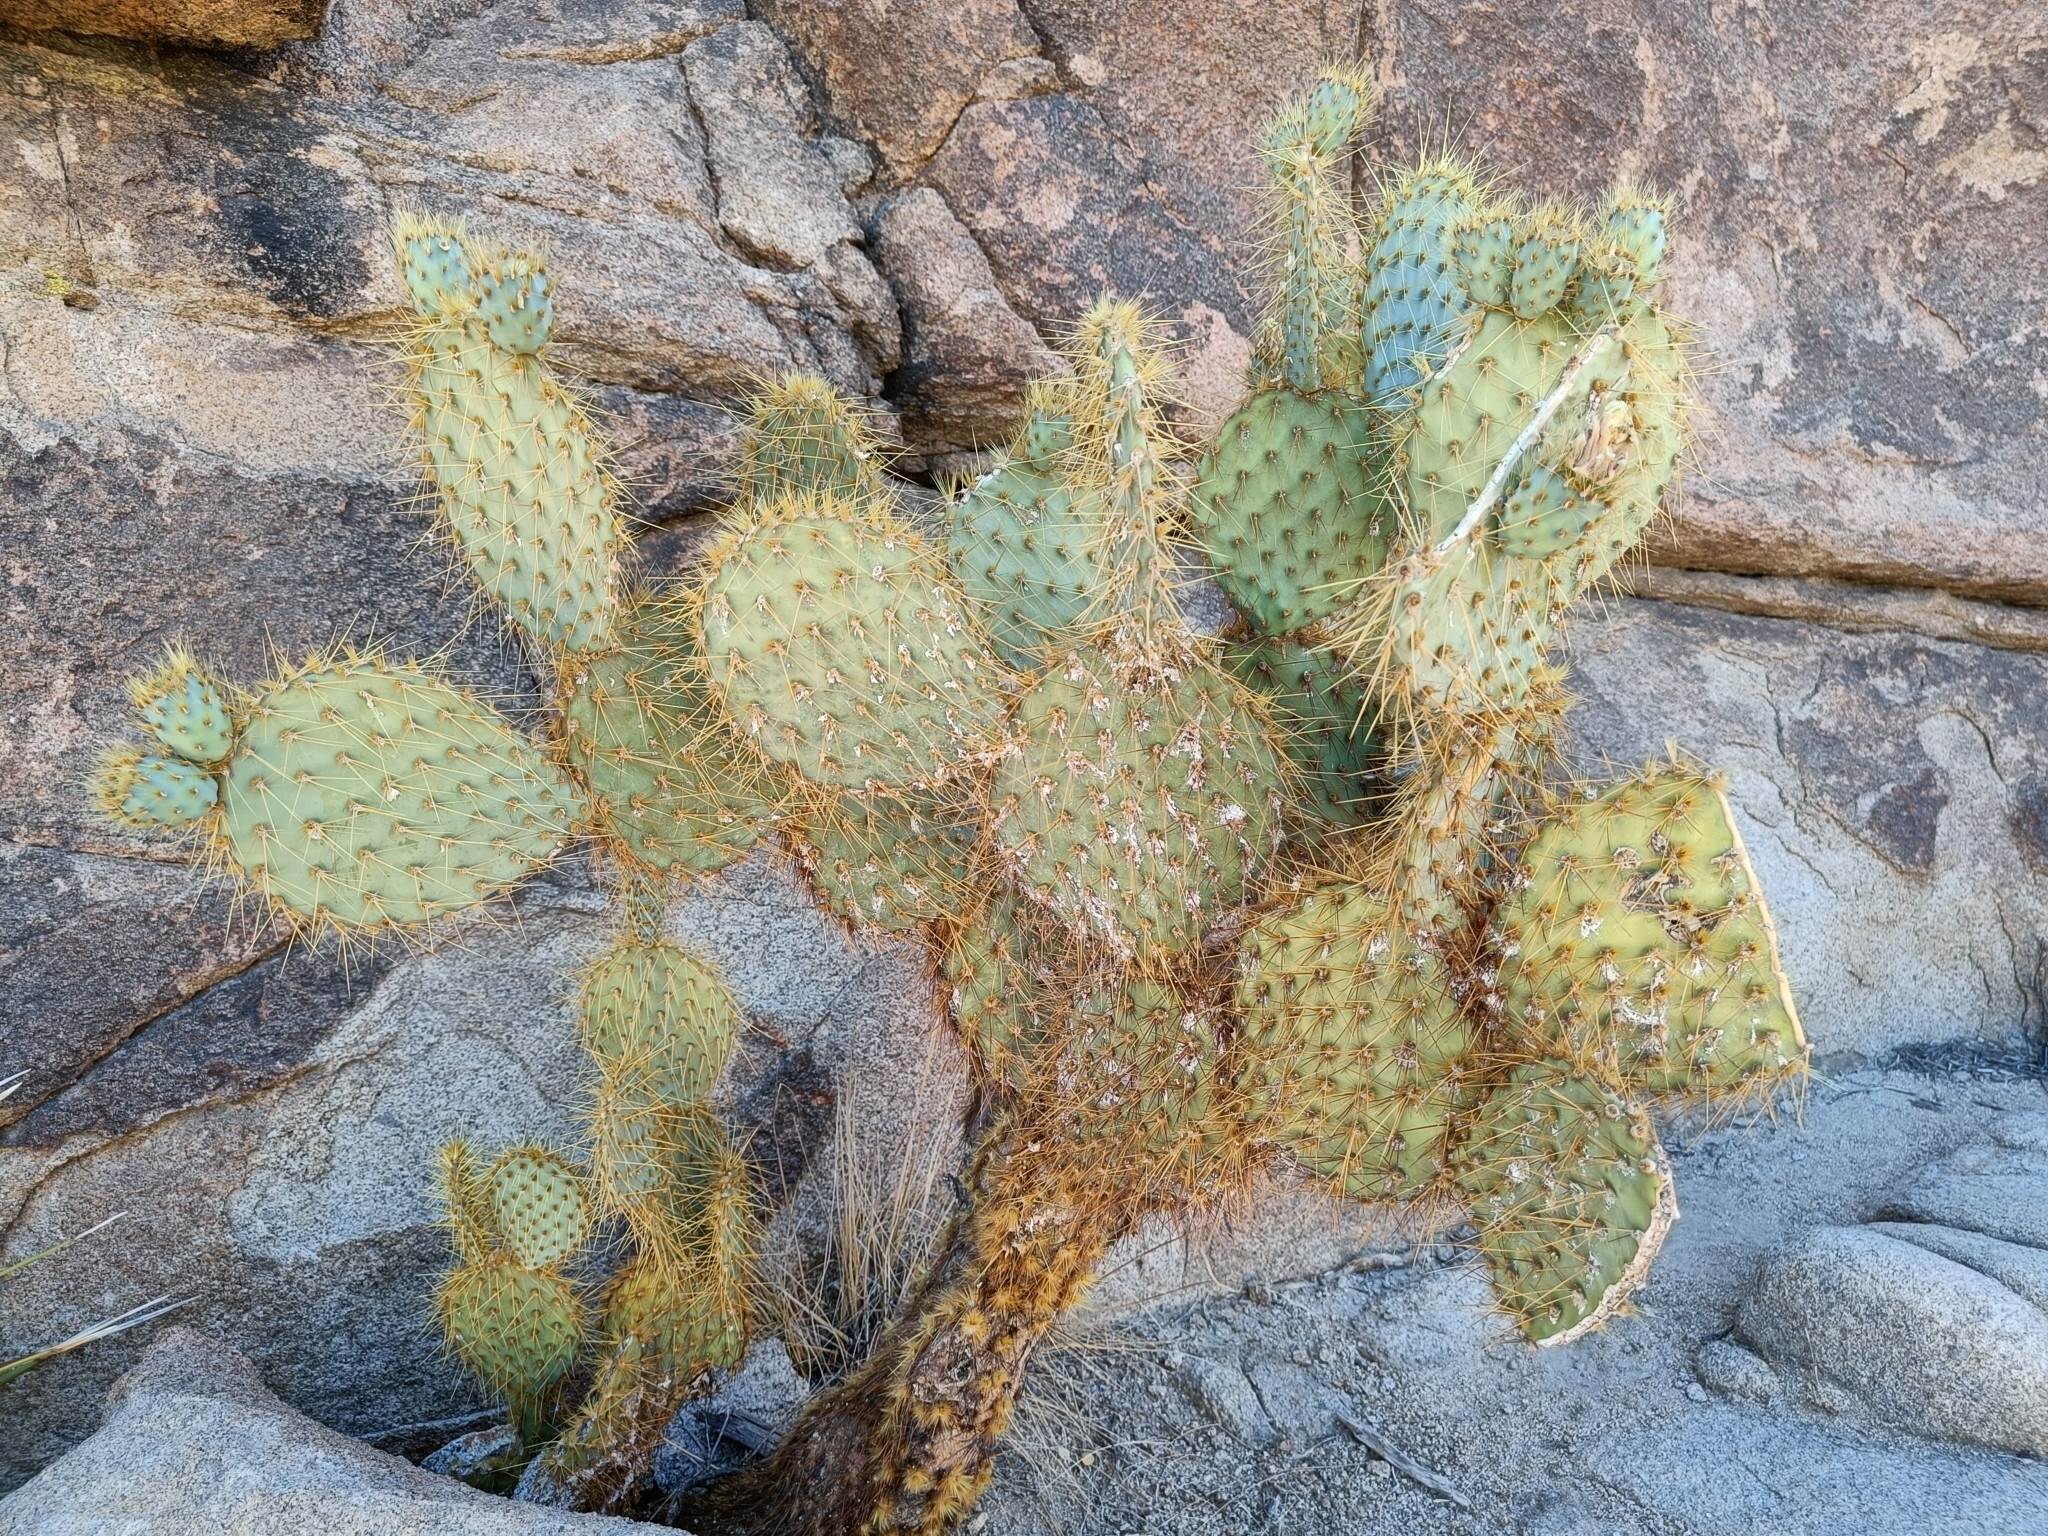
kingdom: Plantae
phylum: Tracheophyta
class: Magnoliopsida
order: Caryophyllales
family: Cactaceae
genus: Opuntia
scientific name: Opuntia chlorotica
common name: Dollar-joint prickly-pear
